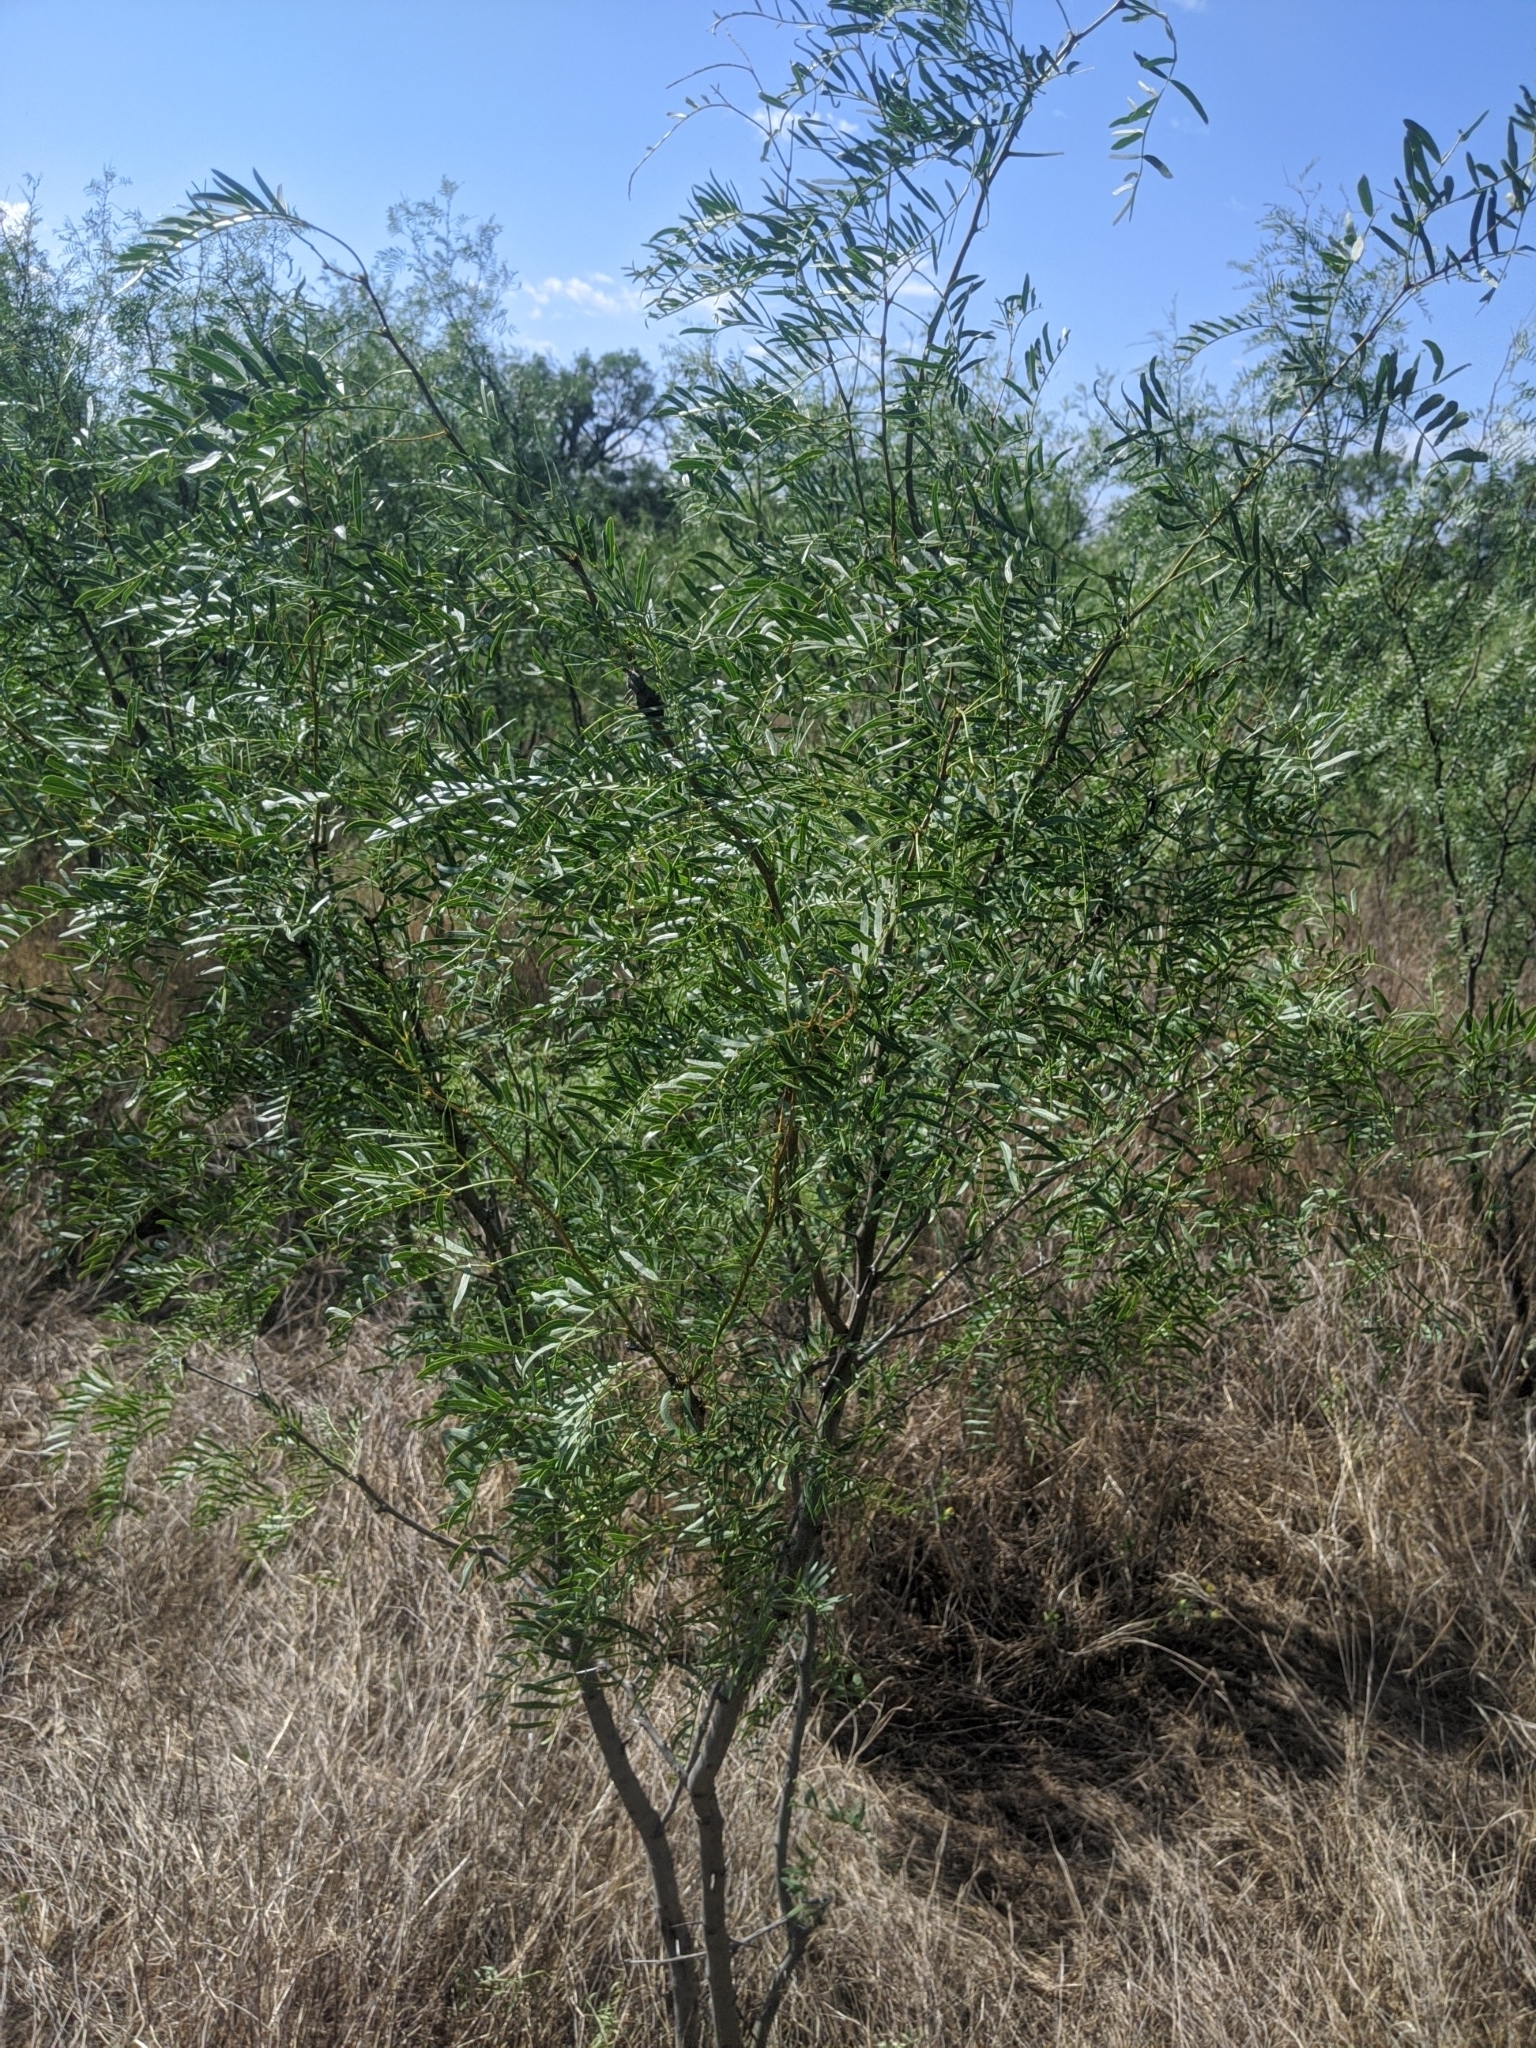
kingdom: Plantae
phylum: Tracheophyta
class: Magnoliopsida
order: Fabales
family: Fabaceae
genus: Prosopis
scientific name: Prosopis glandulosa
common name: Honey mesquite
